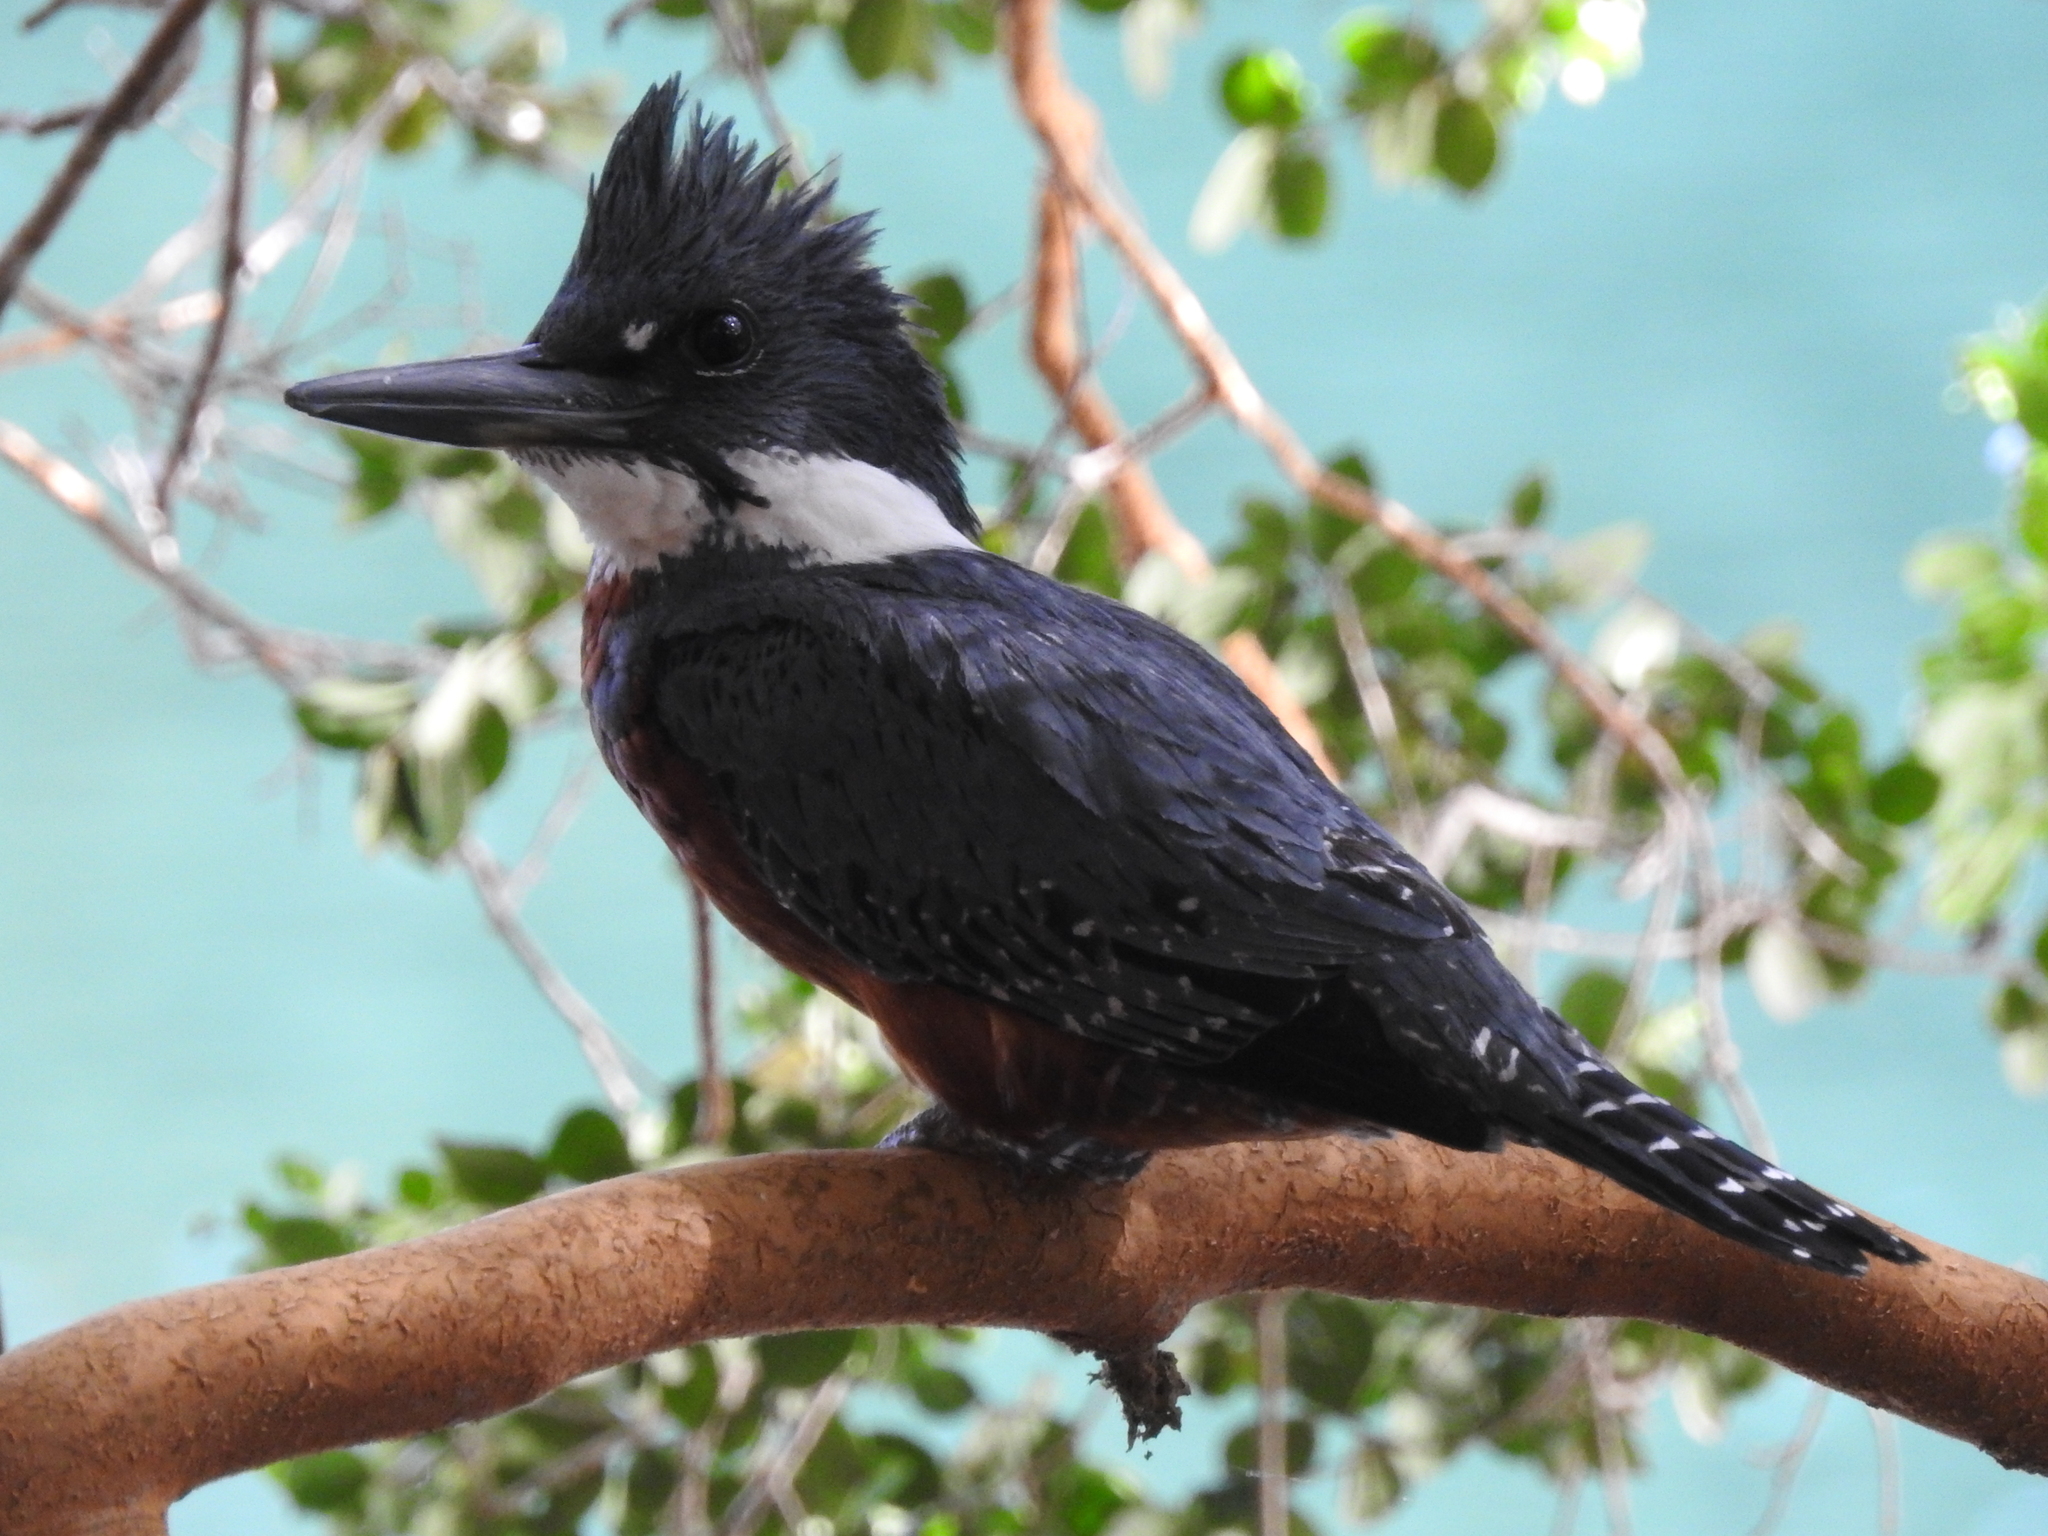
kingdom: Animalia
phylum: Chordata
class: Aves
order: Coraciiformes
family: Alcedinidae
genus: Megaceryle
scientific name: Megaceryle torquata
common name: Ringed kingfisher
